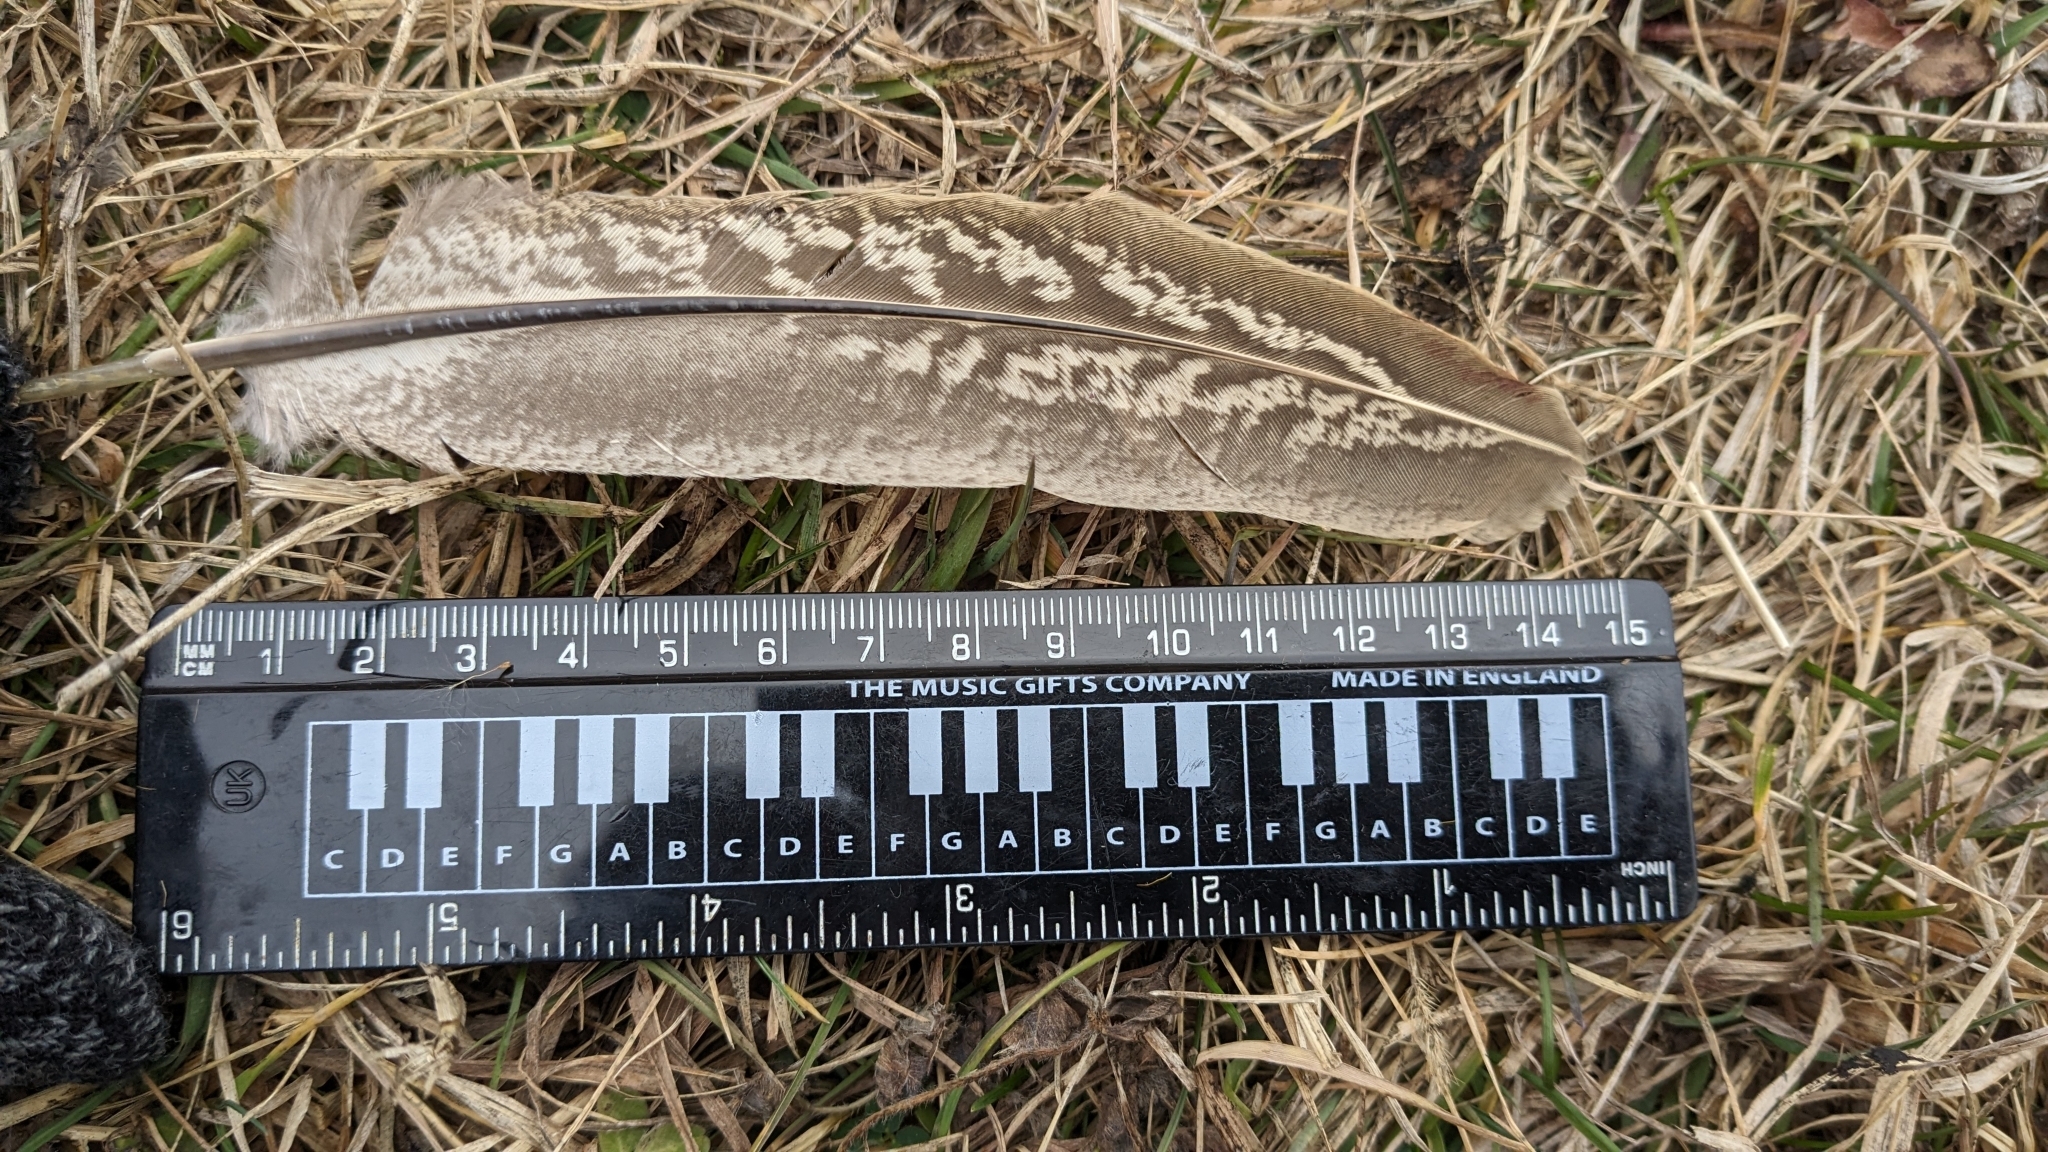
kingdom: Animalia
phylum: Chordata
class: Aves
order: Galliformes
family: Phasianidae
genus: Phasianus
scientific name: Phasianus colchicus
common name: Common pheasant
